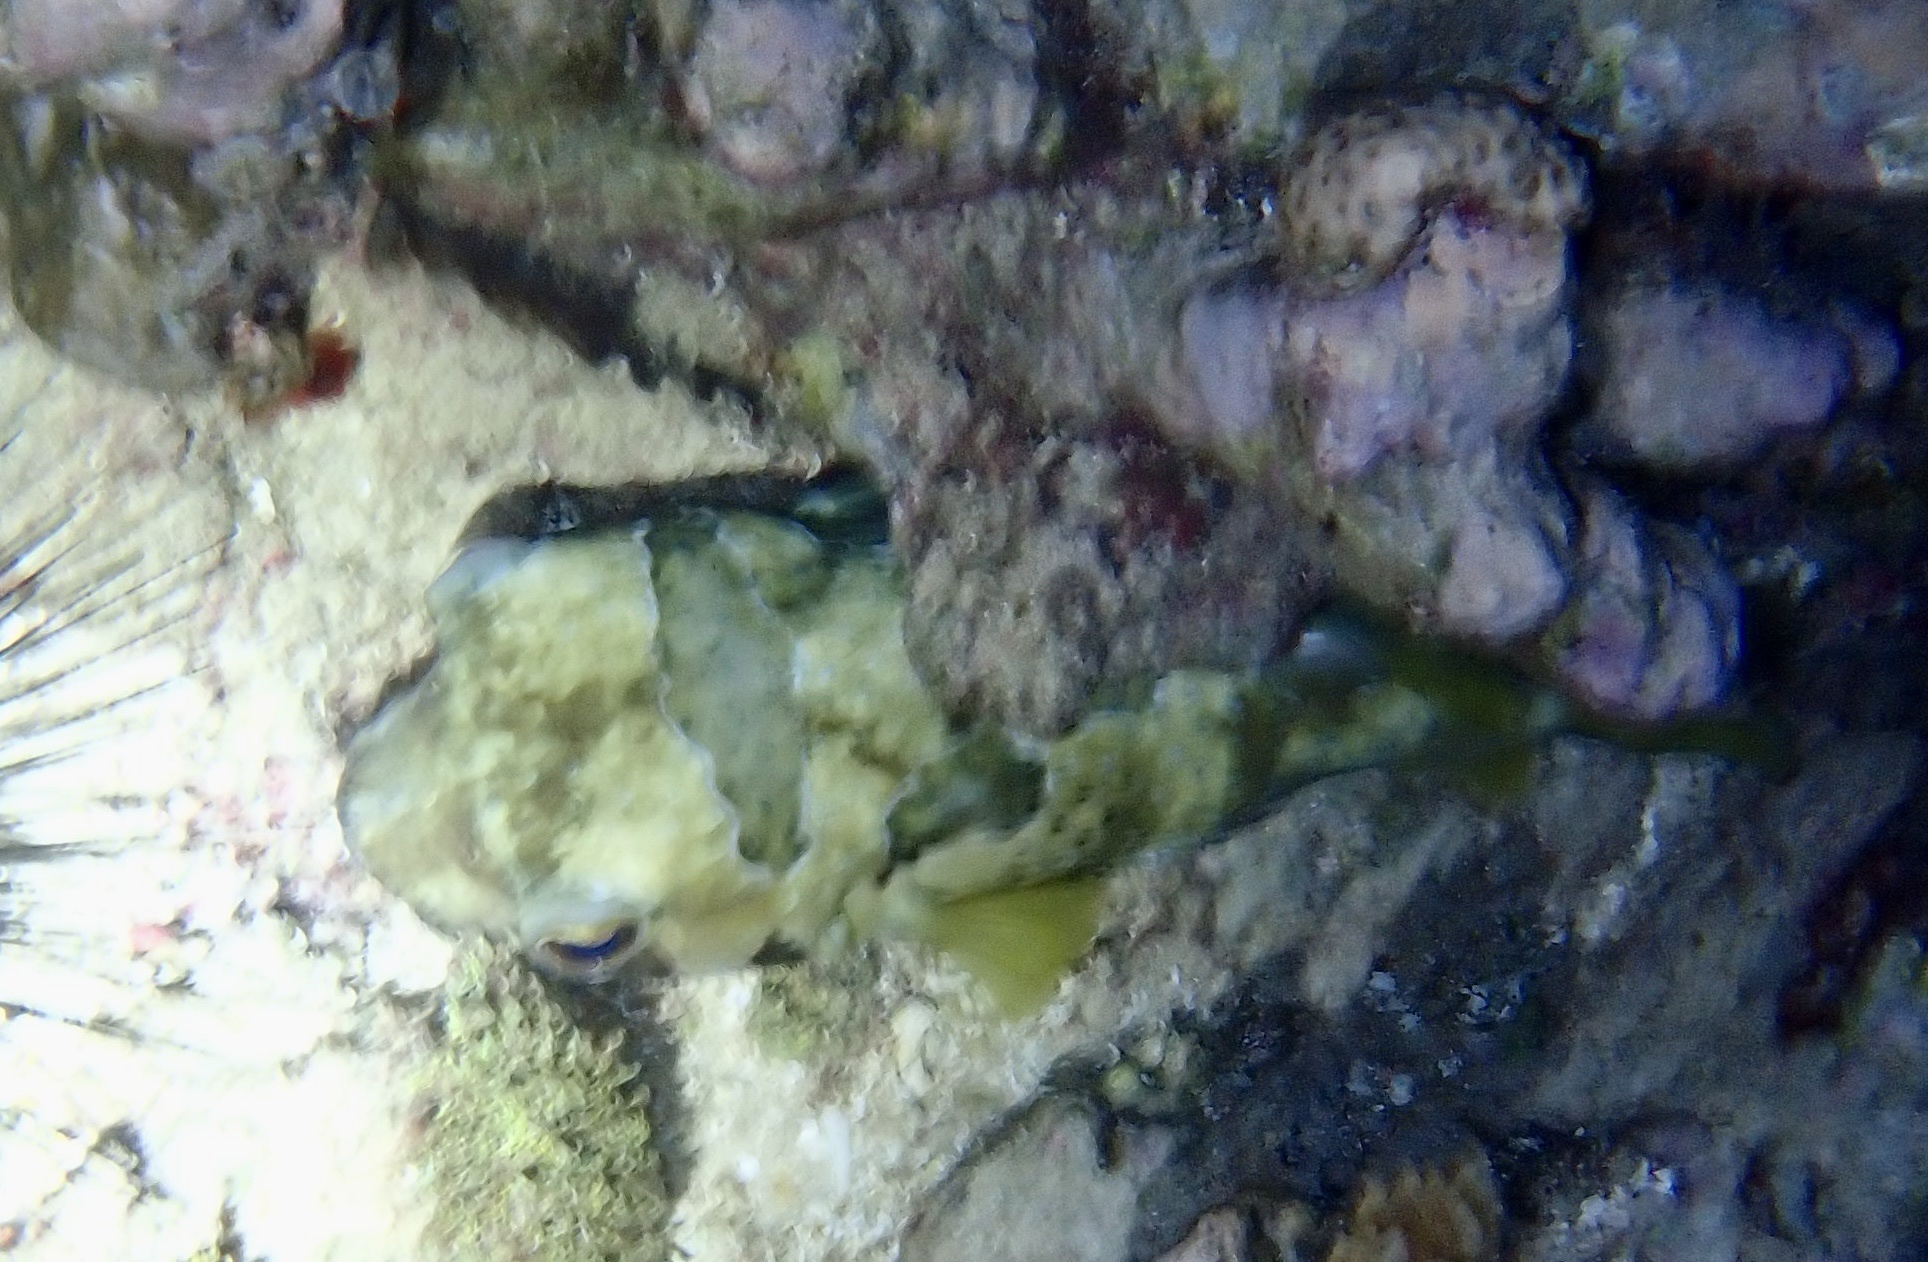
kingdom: Animalia
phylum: Chordata
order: Tetraodontiformes
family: Diodontidae
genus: Diodon
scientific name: Diodon liturosus
